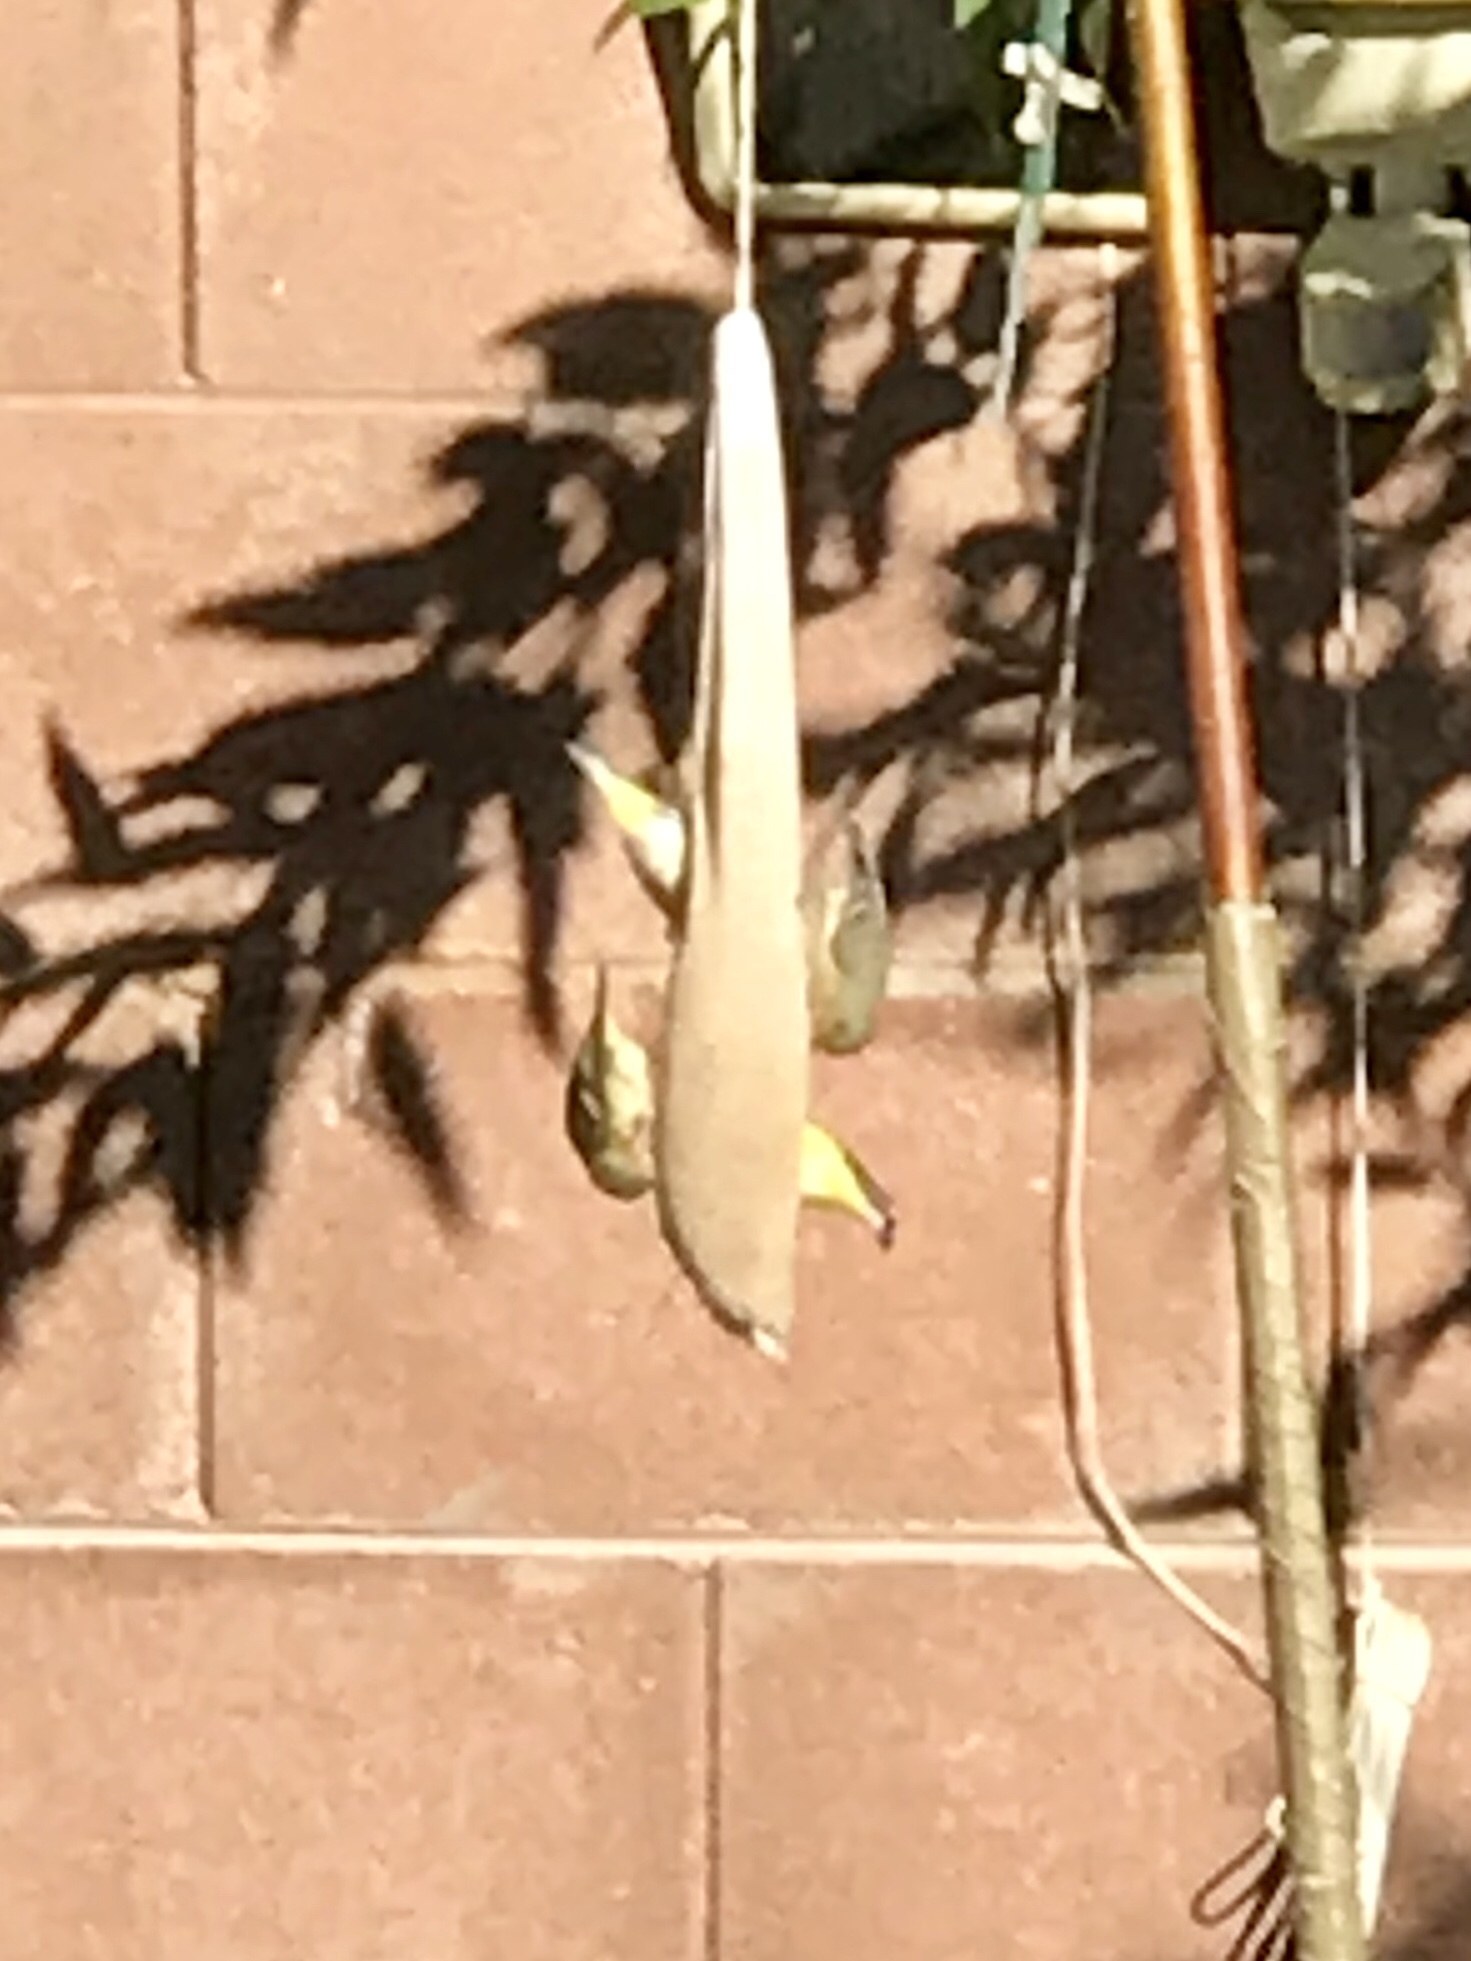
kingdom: Animalia
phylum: Chordata
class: Aves
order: Passeriformes
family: Fringillidae
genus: Spinus
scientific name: Spinus psaltria
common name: Lesser goldfinch
